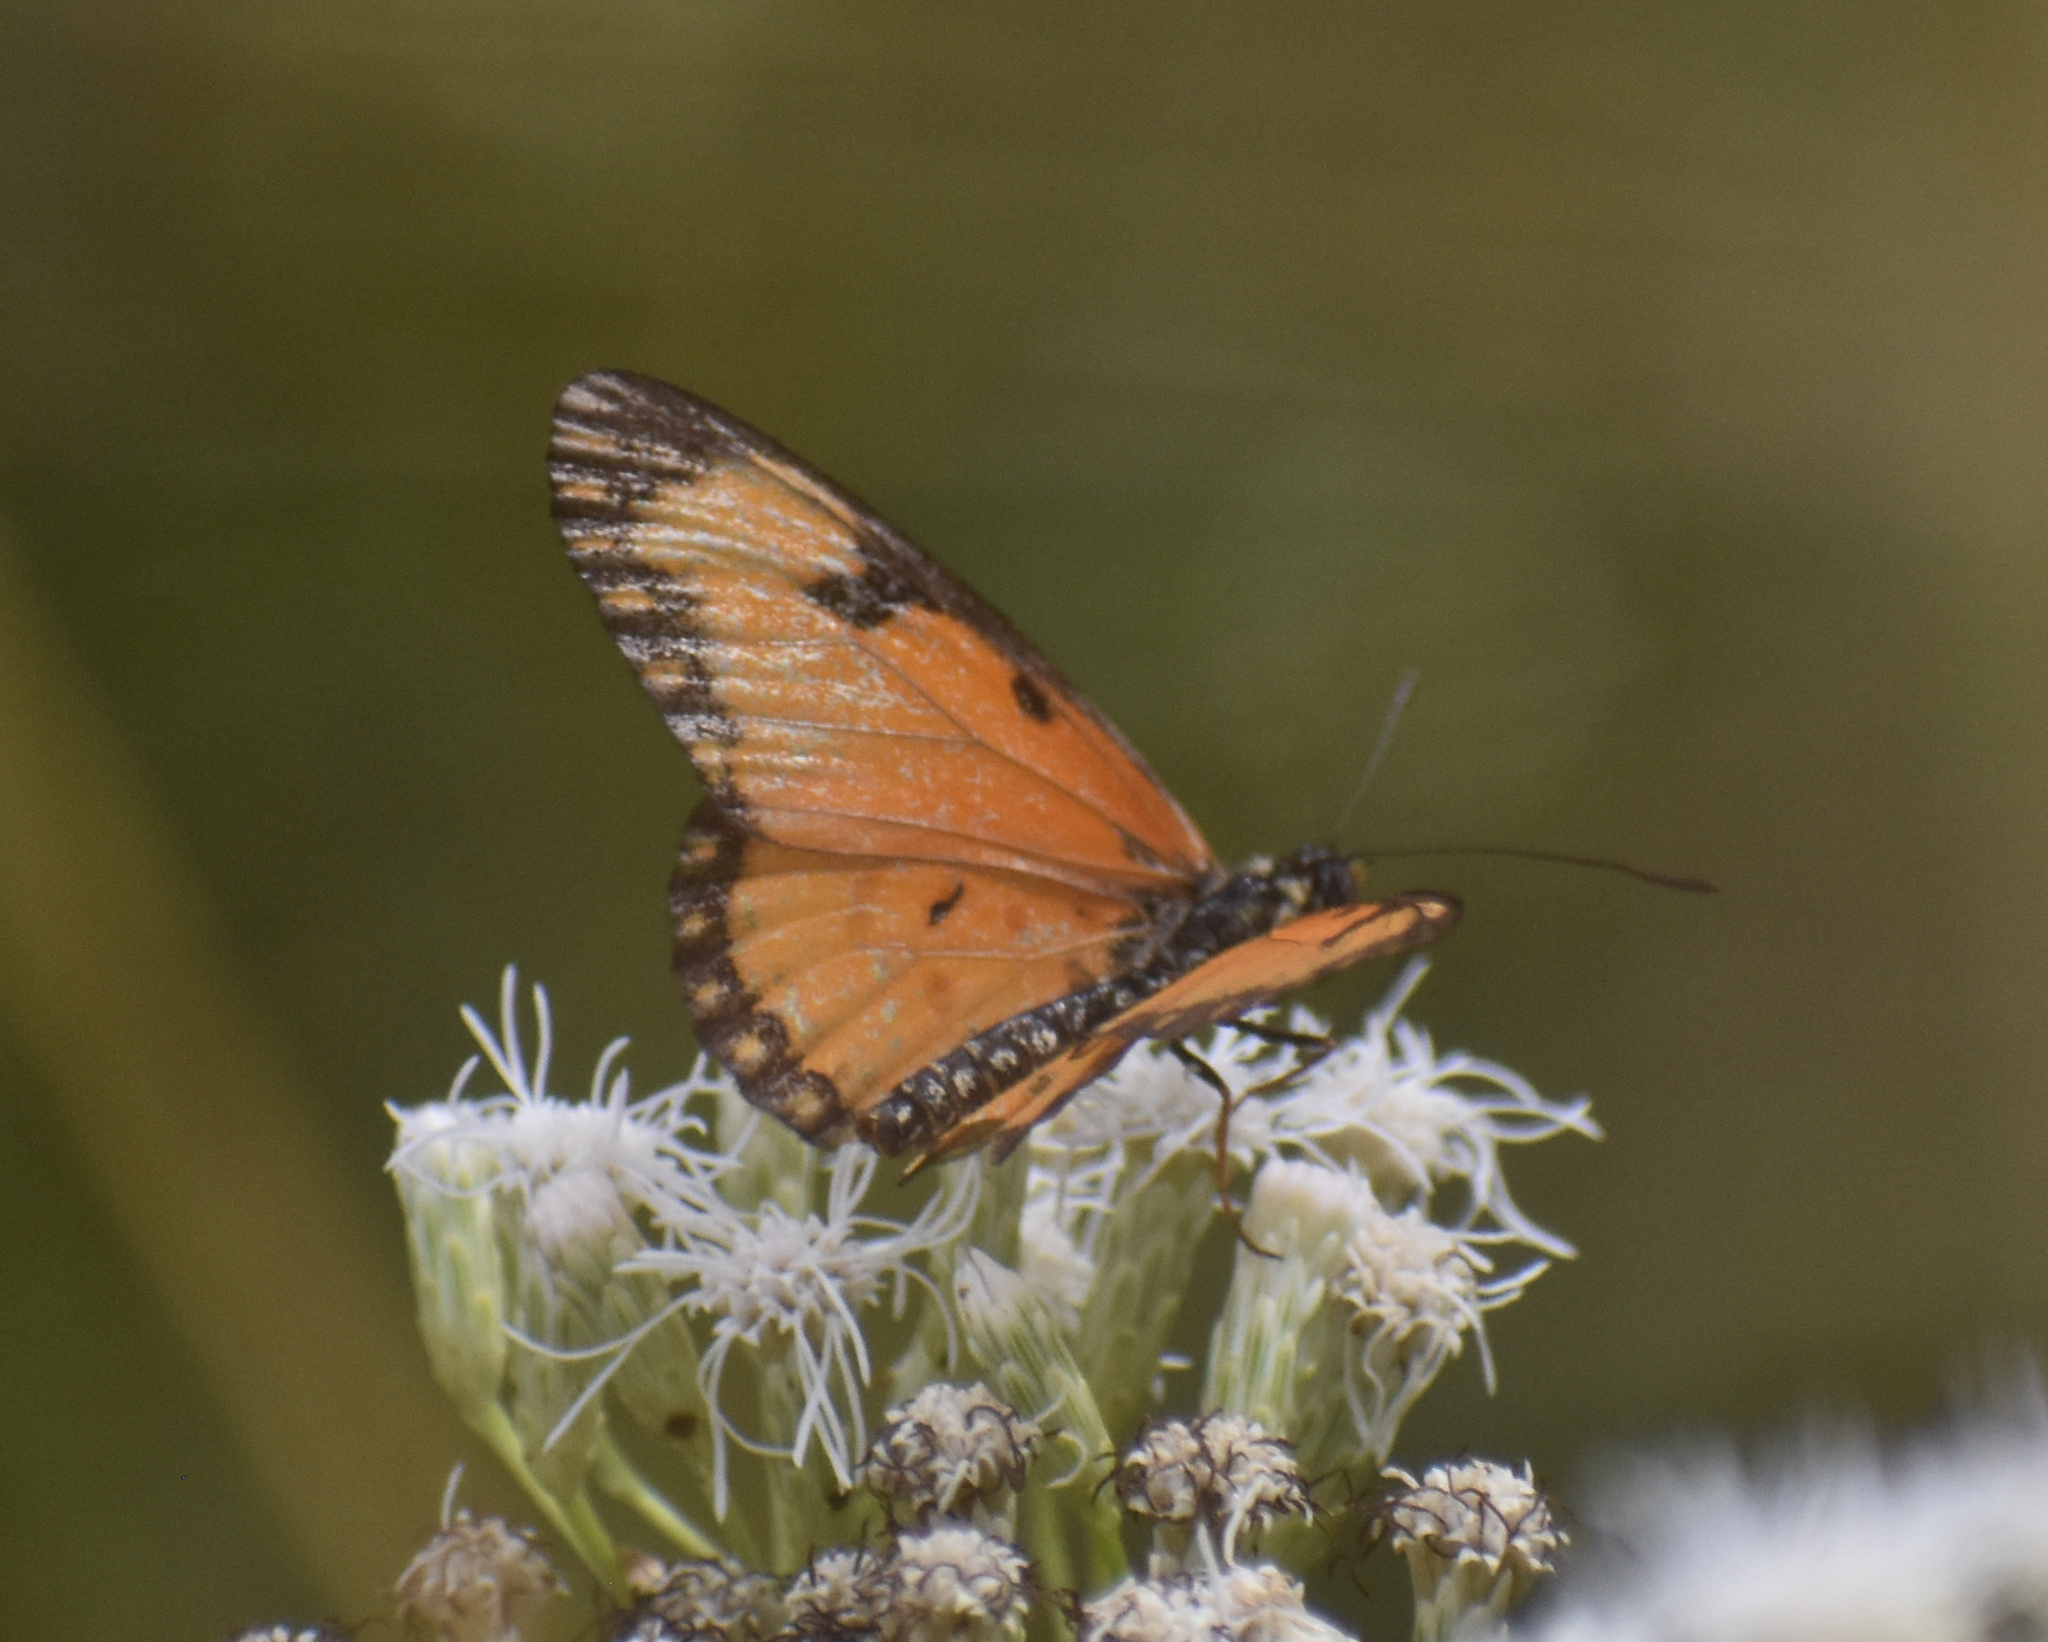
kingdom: Animalia
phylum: Arthropoda
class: Insecta
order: Lepidoptera
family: Nymphalidae
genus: Acraea
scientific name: Acraea Telchinia serena
